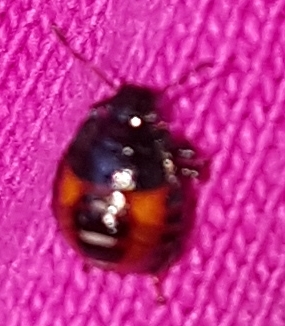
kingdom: Animalia
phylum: Arthropoda
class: Insecta
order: Hemiptera
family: Pentatomidae
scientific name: Pentatomidae
